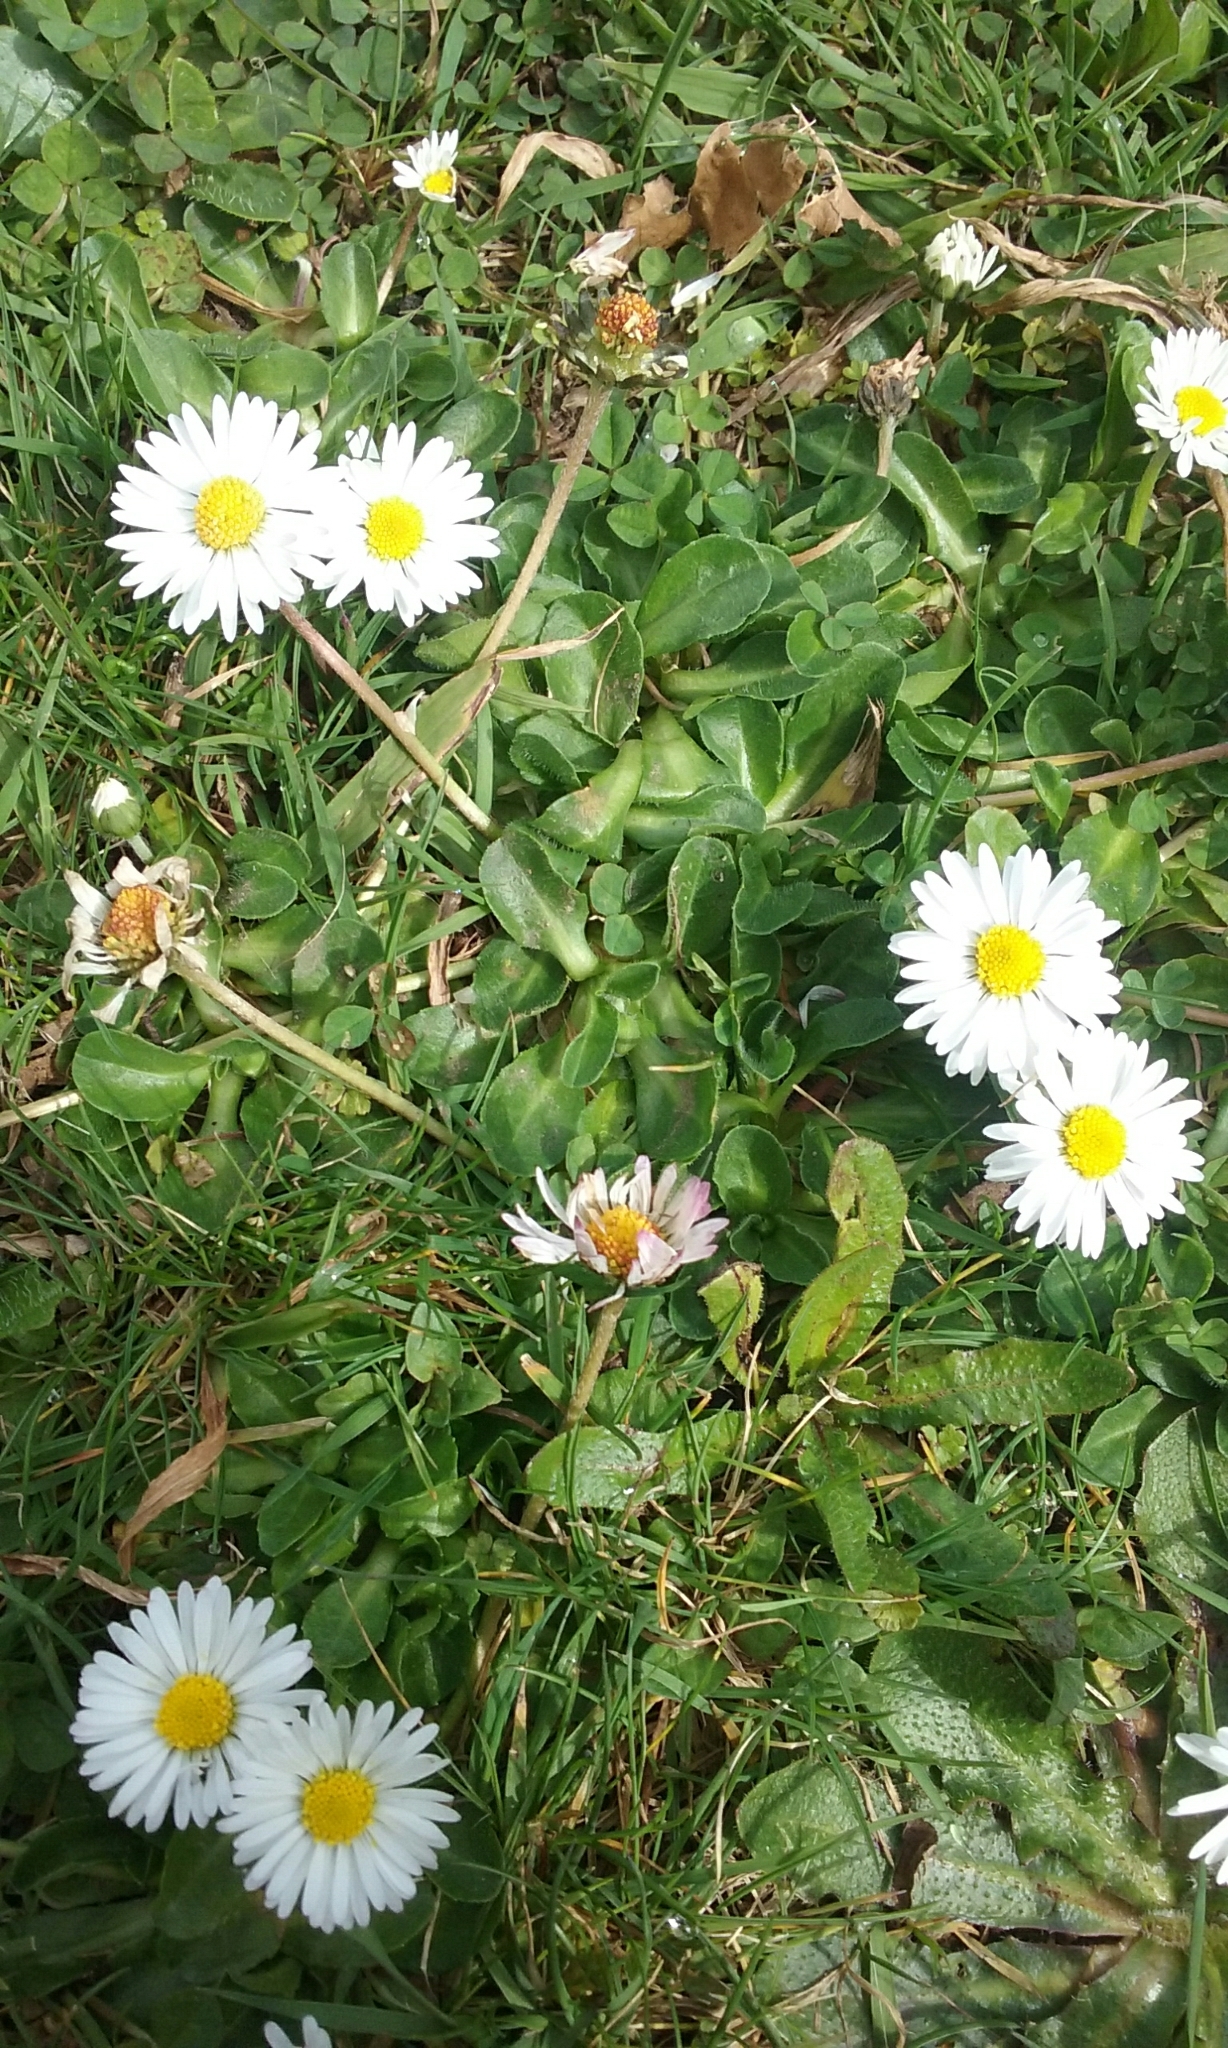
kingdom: Plantae
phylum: Tracheophyta
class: Magnoliopsida
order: Asterales
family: Asteraceae
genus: Bellis
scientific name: Bellis perennis
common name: Lawndaisy
